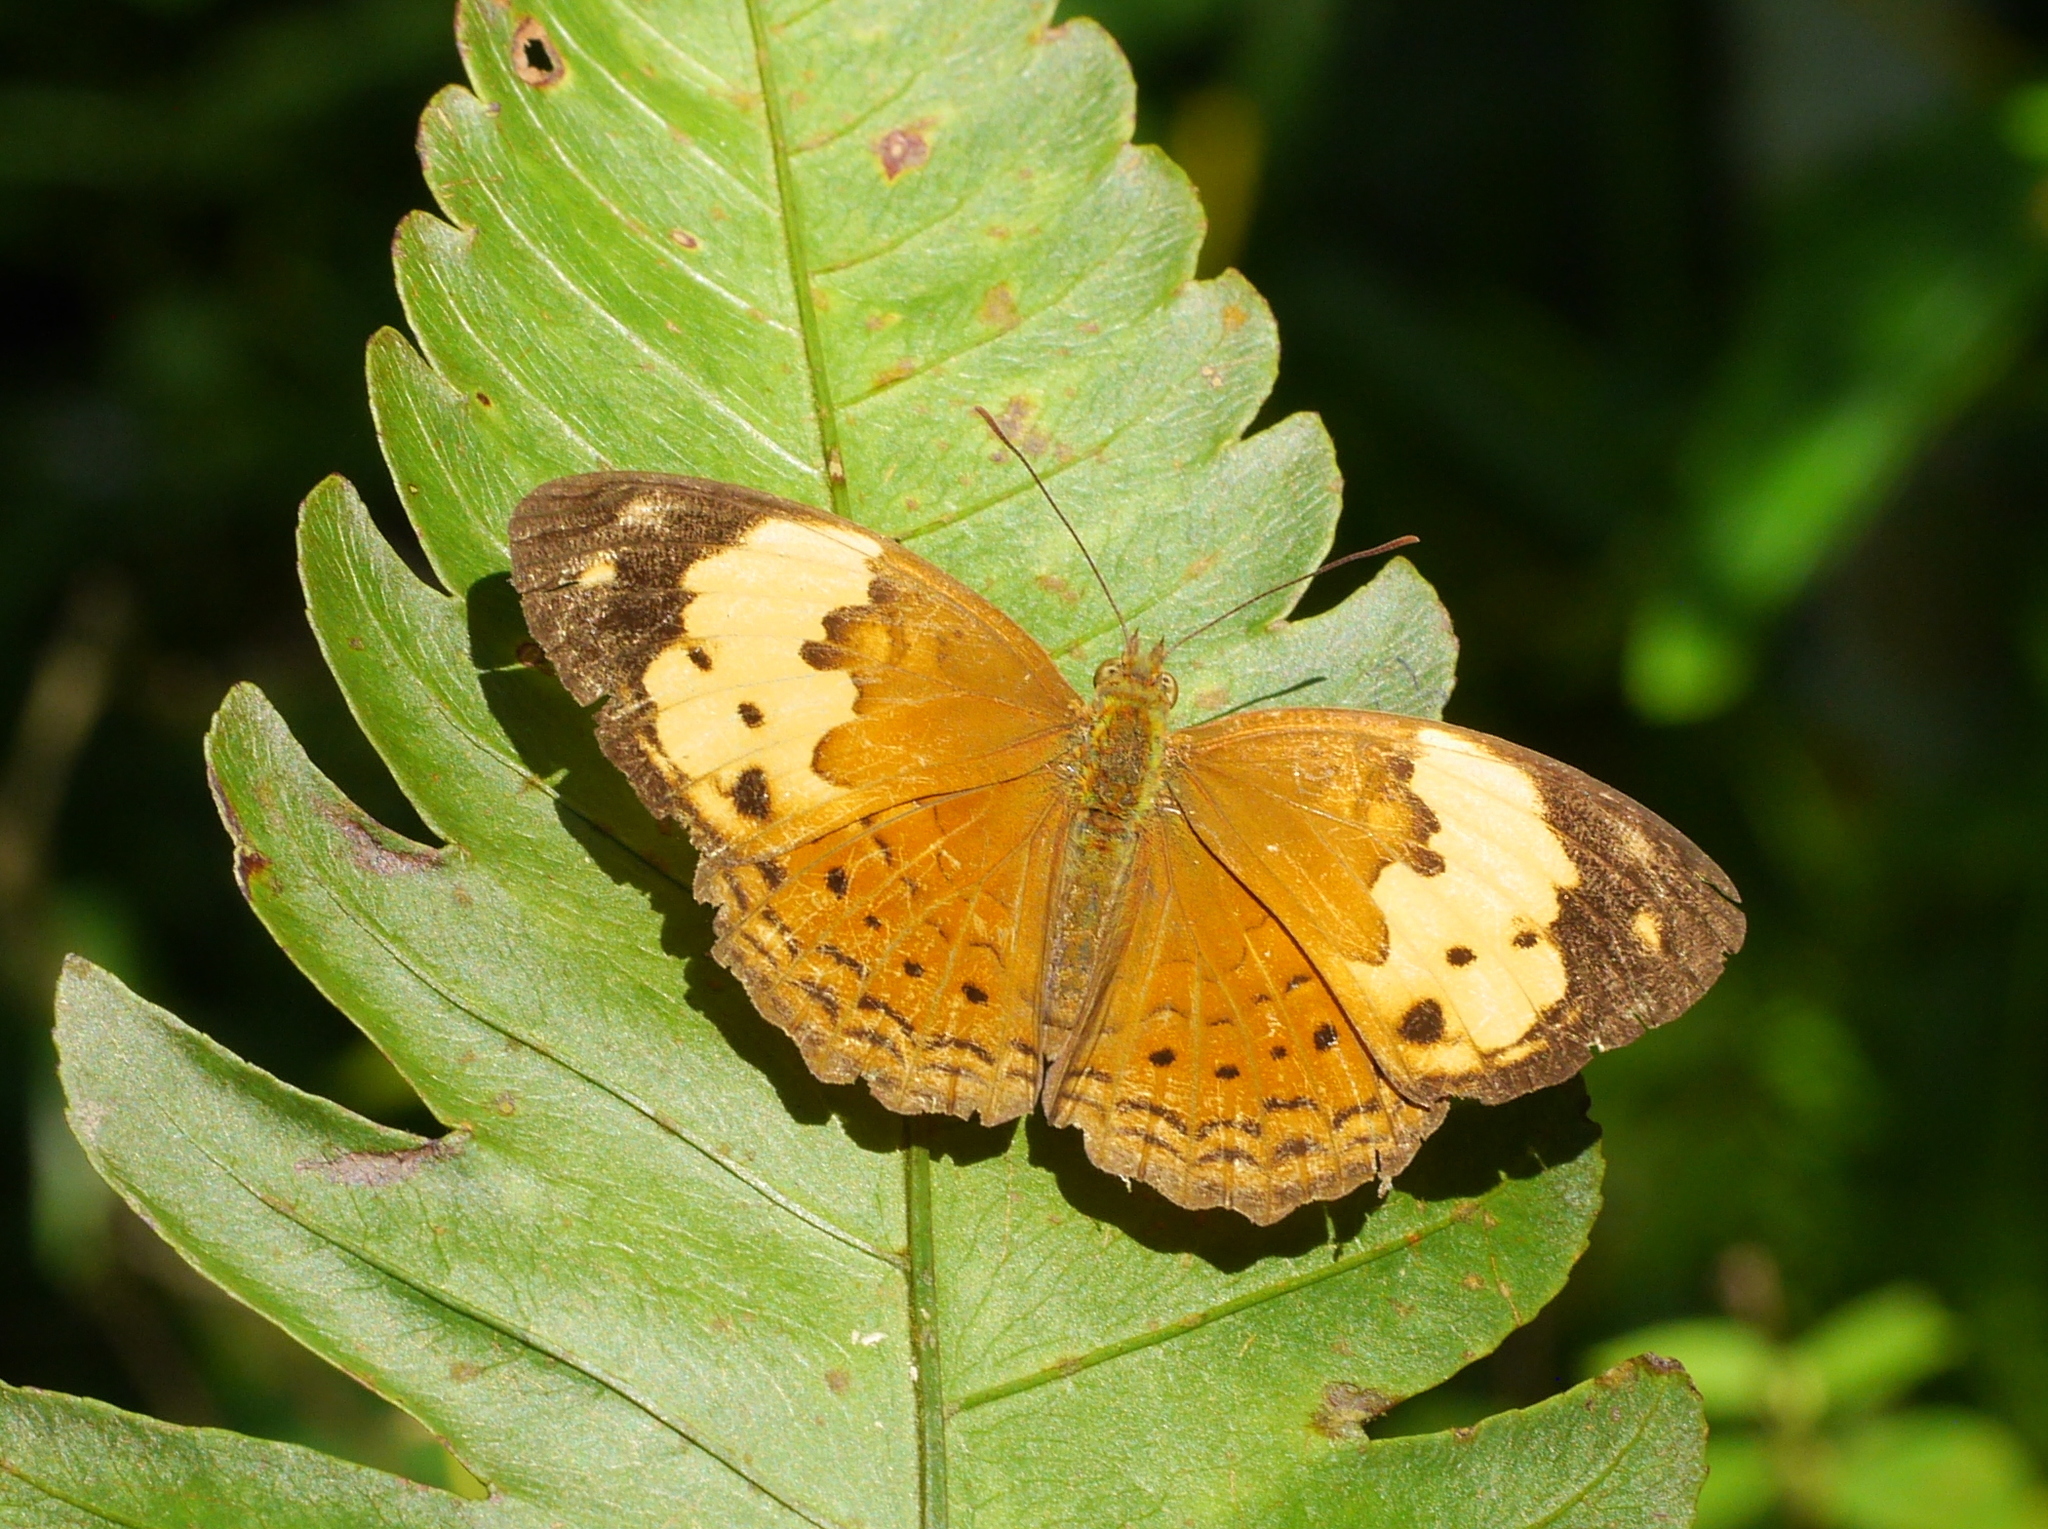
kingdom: Animalia
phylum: Arthropoda
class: Insecta
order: Lepidoptera
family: Nymphalidae
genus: Cupha
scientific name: Cupha erymanthis
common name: Rustic
